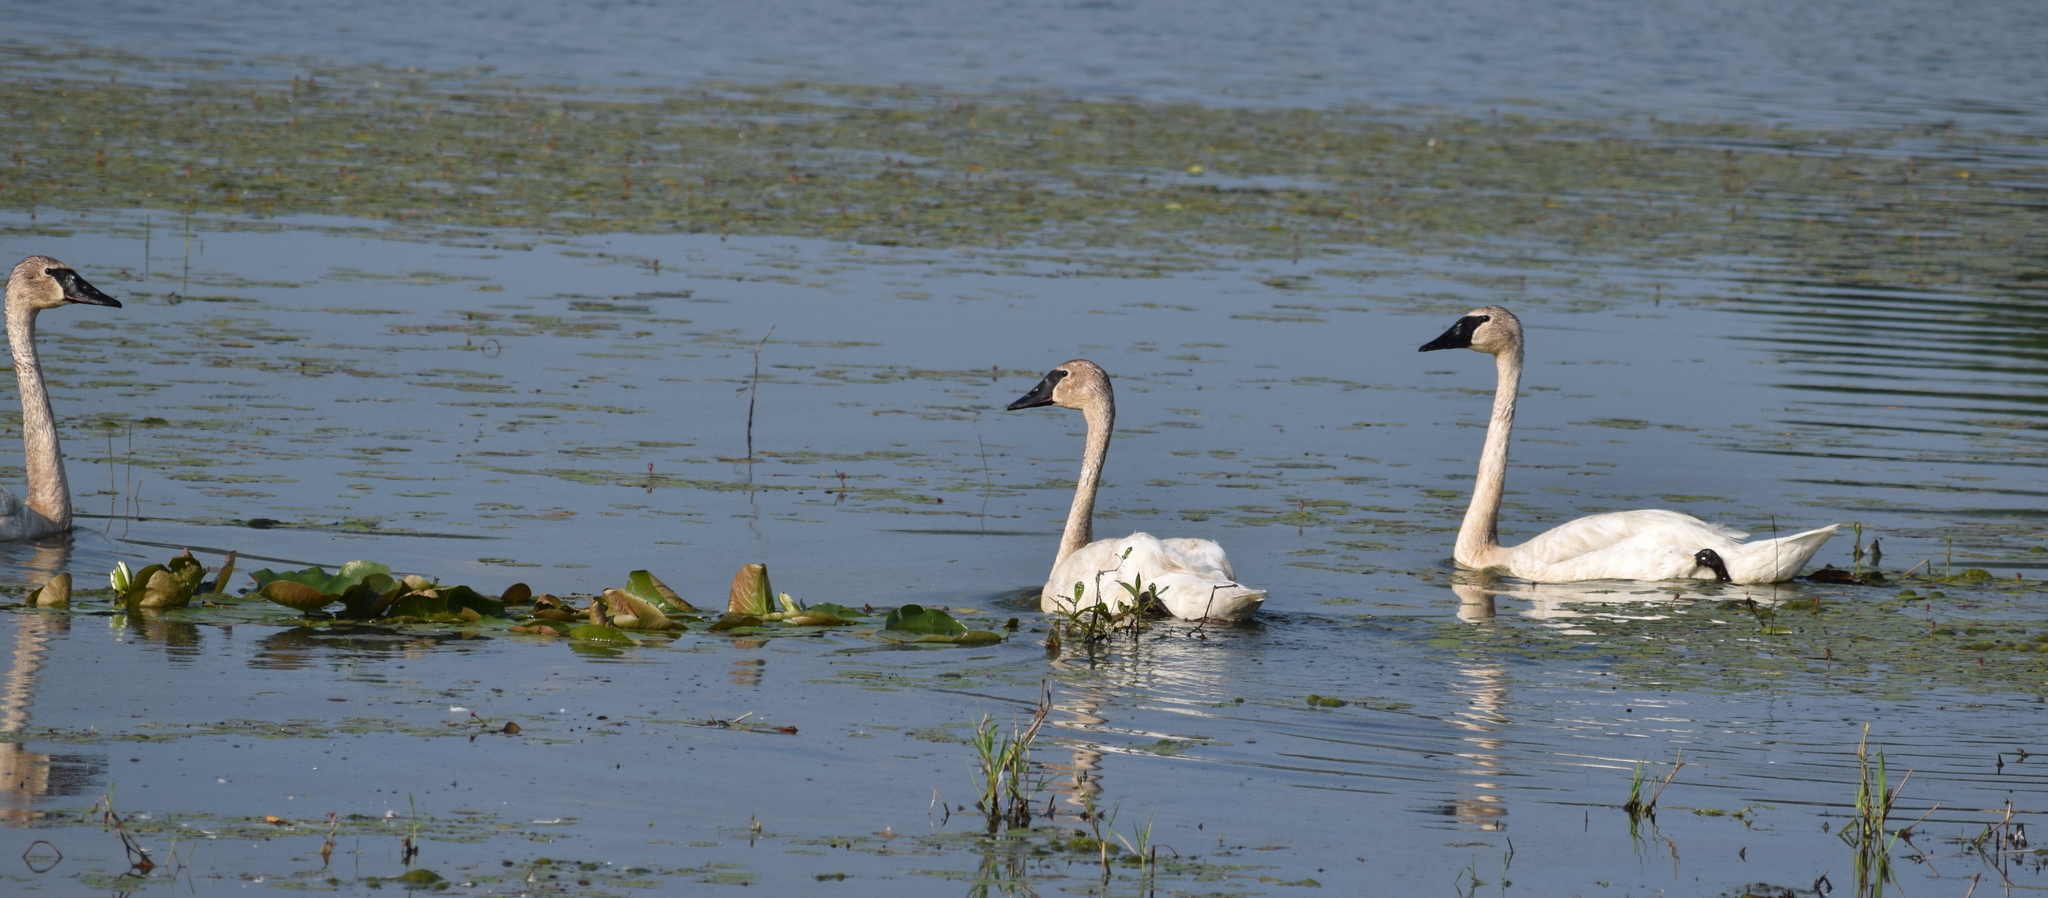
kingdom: Animalia
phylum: Chordata
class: Aves
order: Anseriformes
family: Anatidae
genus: Cygnus
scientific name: Cygnus buccinator
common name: Trumpeter swan
